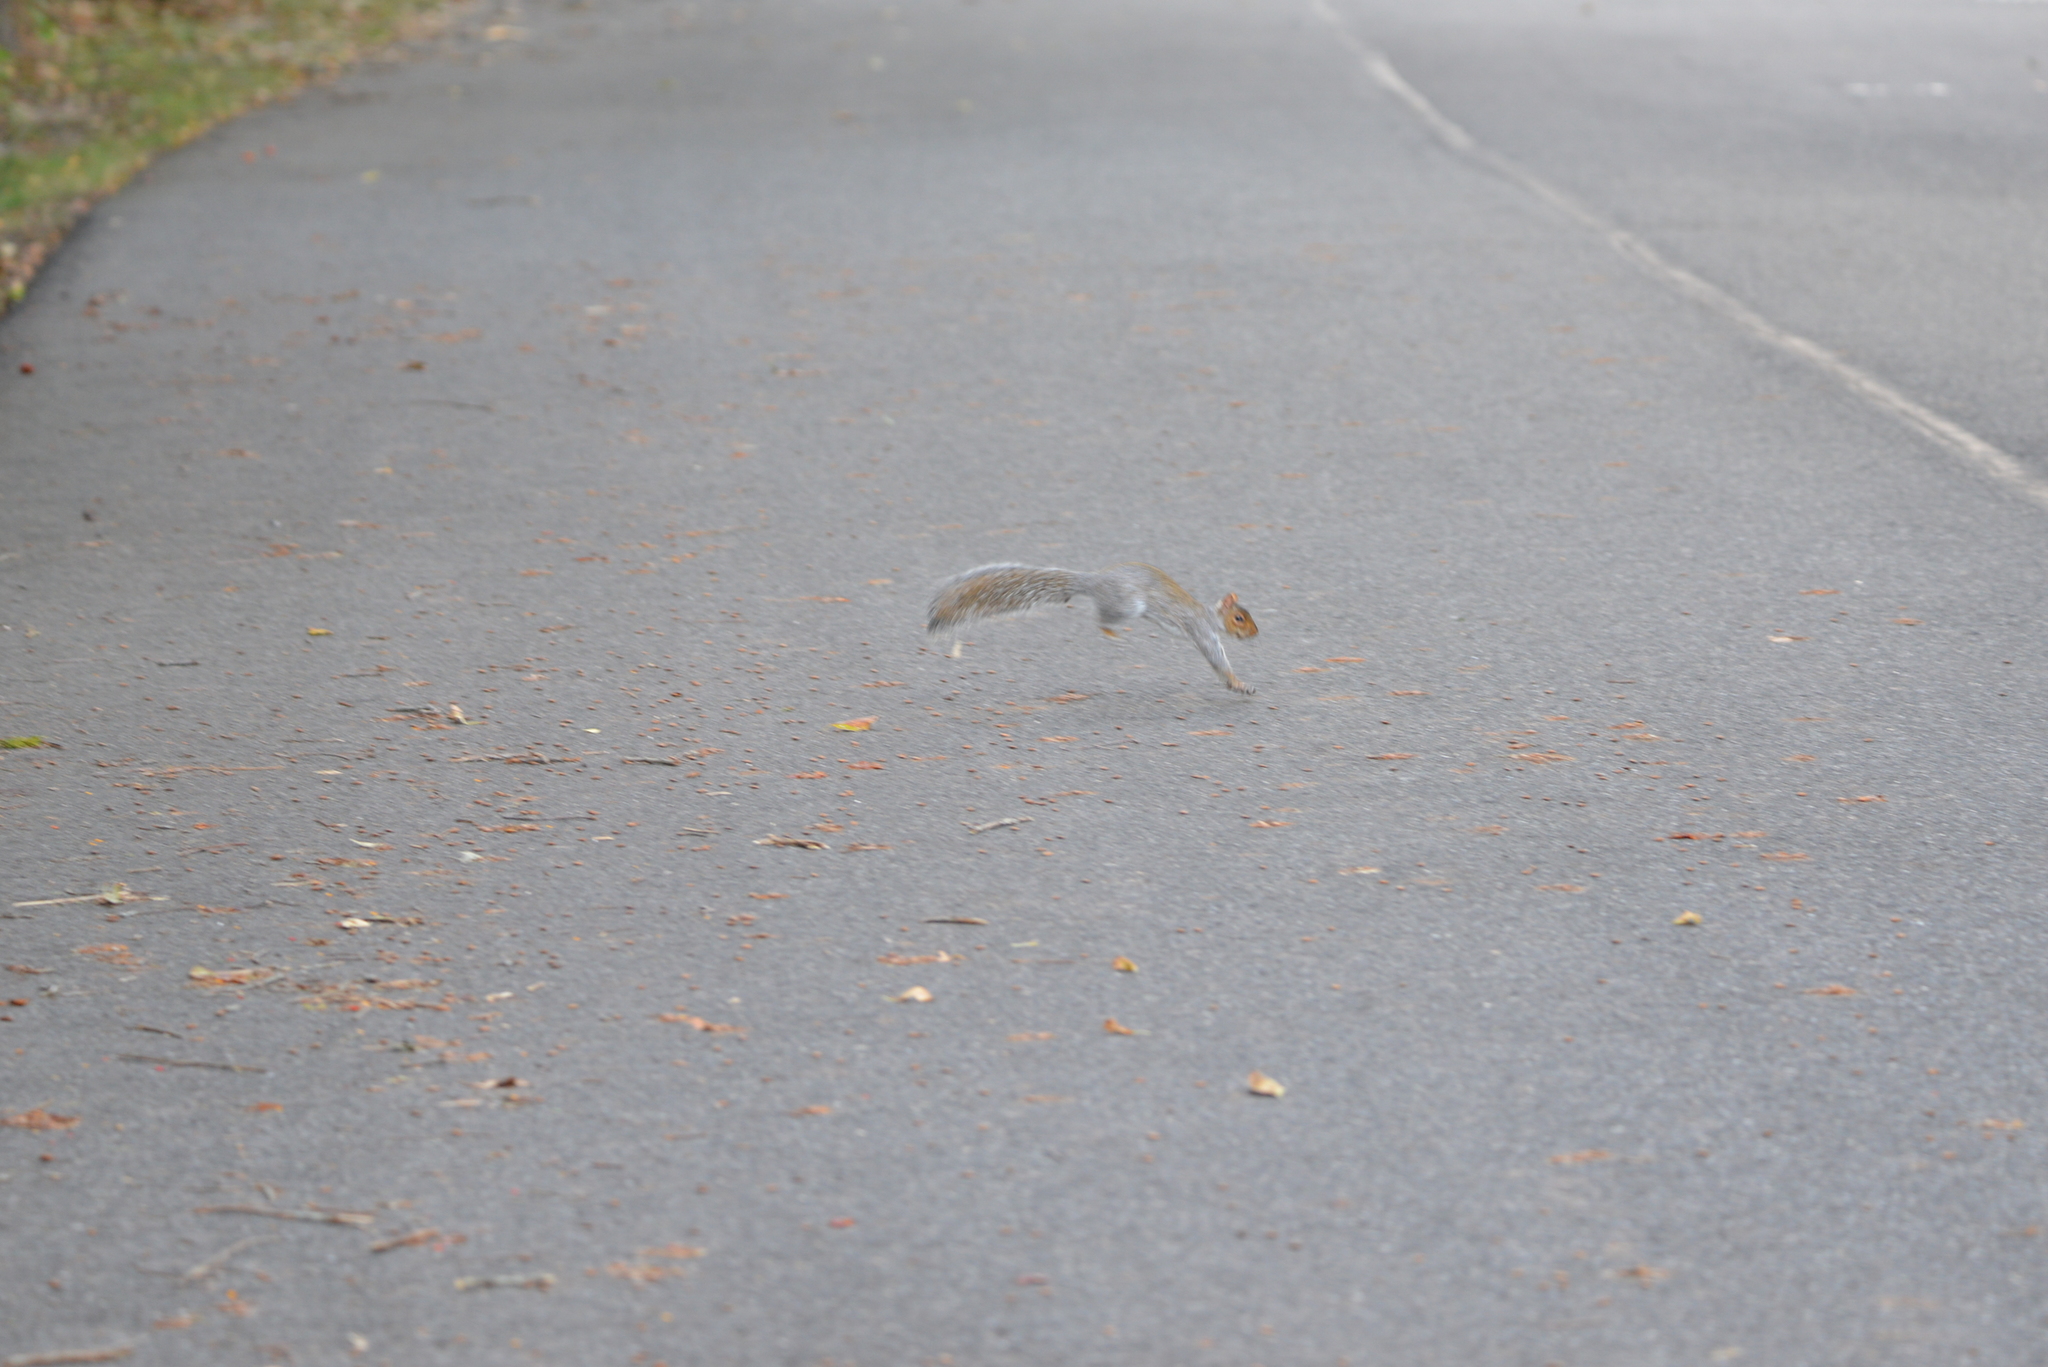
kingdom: Animalia
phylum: Chordata
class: Mammalia
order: Rodentia
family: Sciuridae
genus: Sciurus
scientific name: Sciurus carolinensis
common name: Eastern gray squirrel
